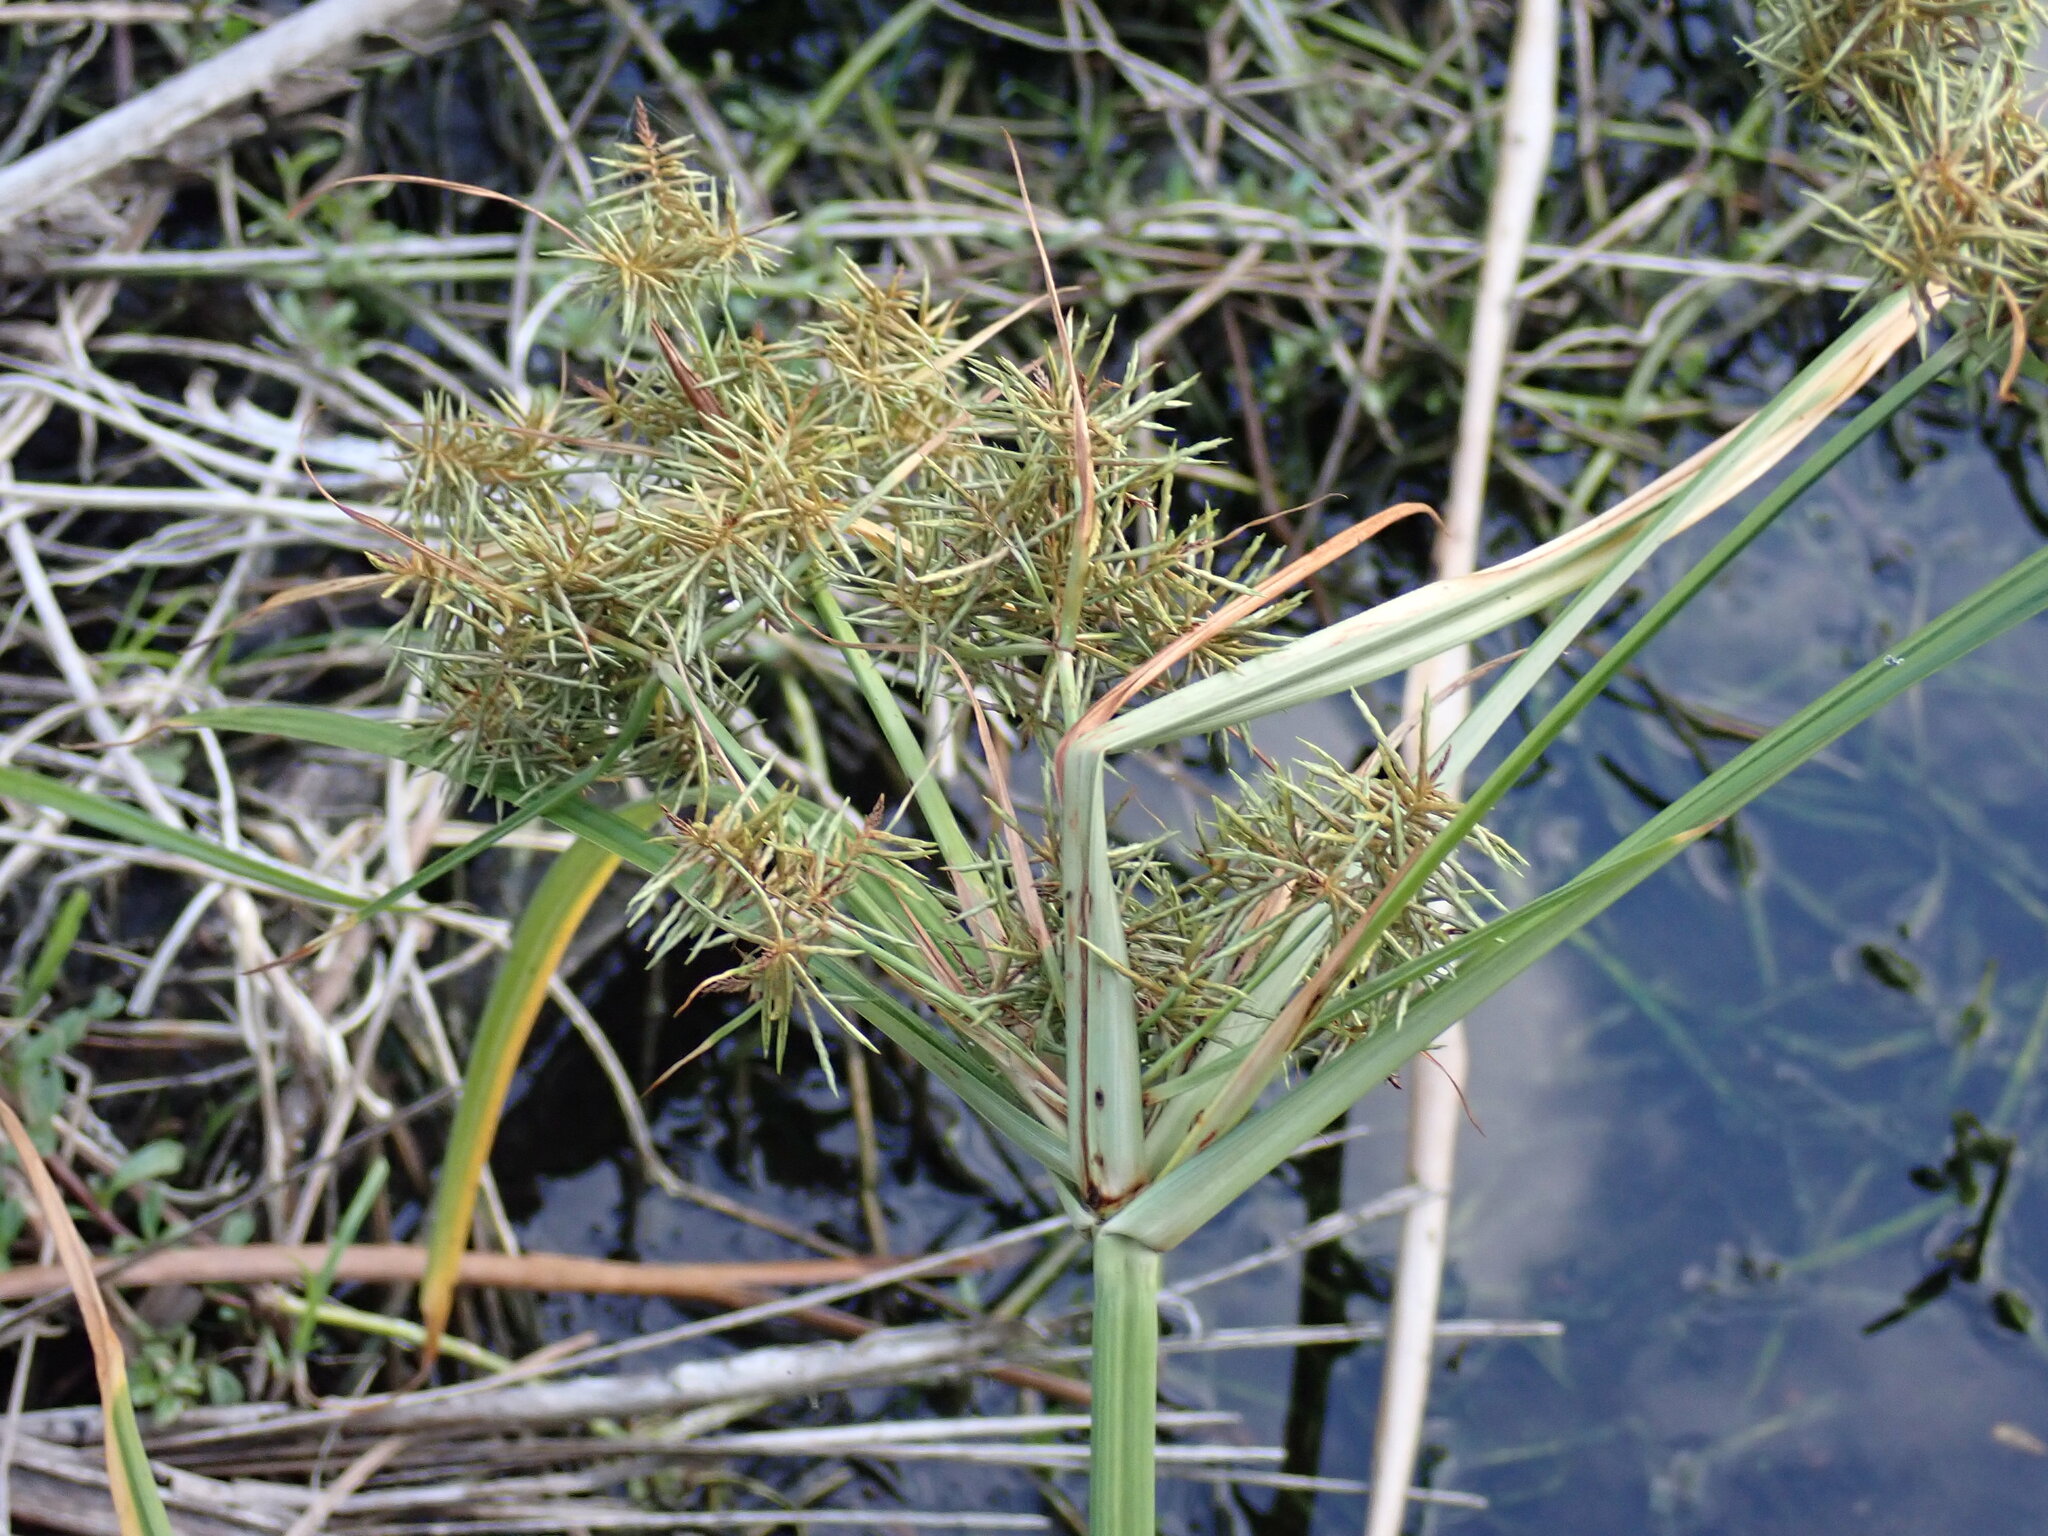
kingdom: Plantae
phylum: Tracheophyta
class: Liliopsida
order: Poales
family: Cyperaceae
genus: Cyperus
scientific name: Cyperus odoratus
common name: Fragrant flatsedge
